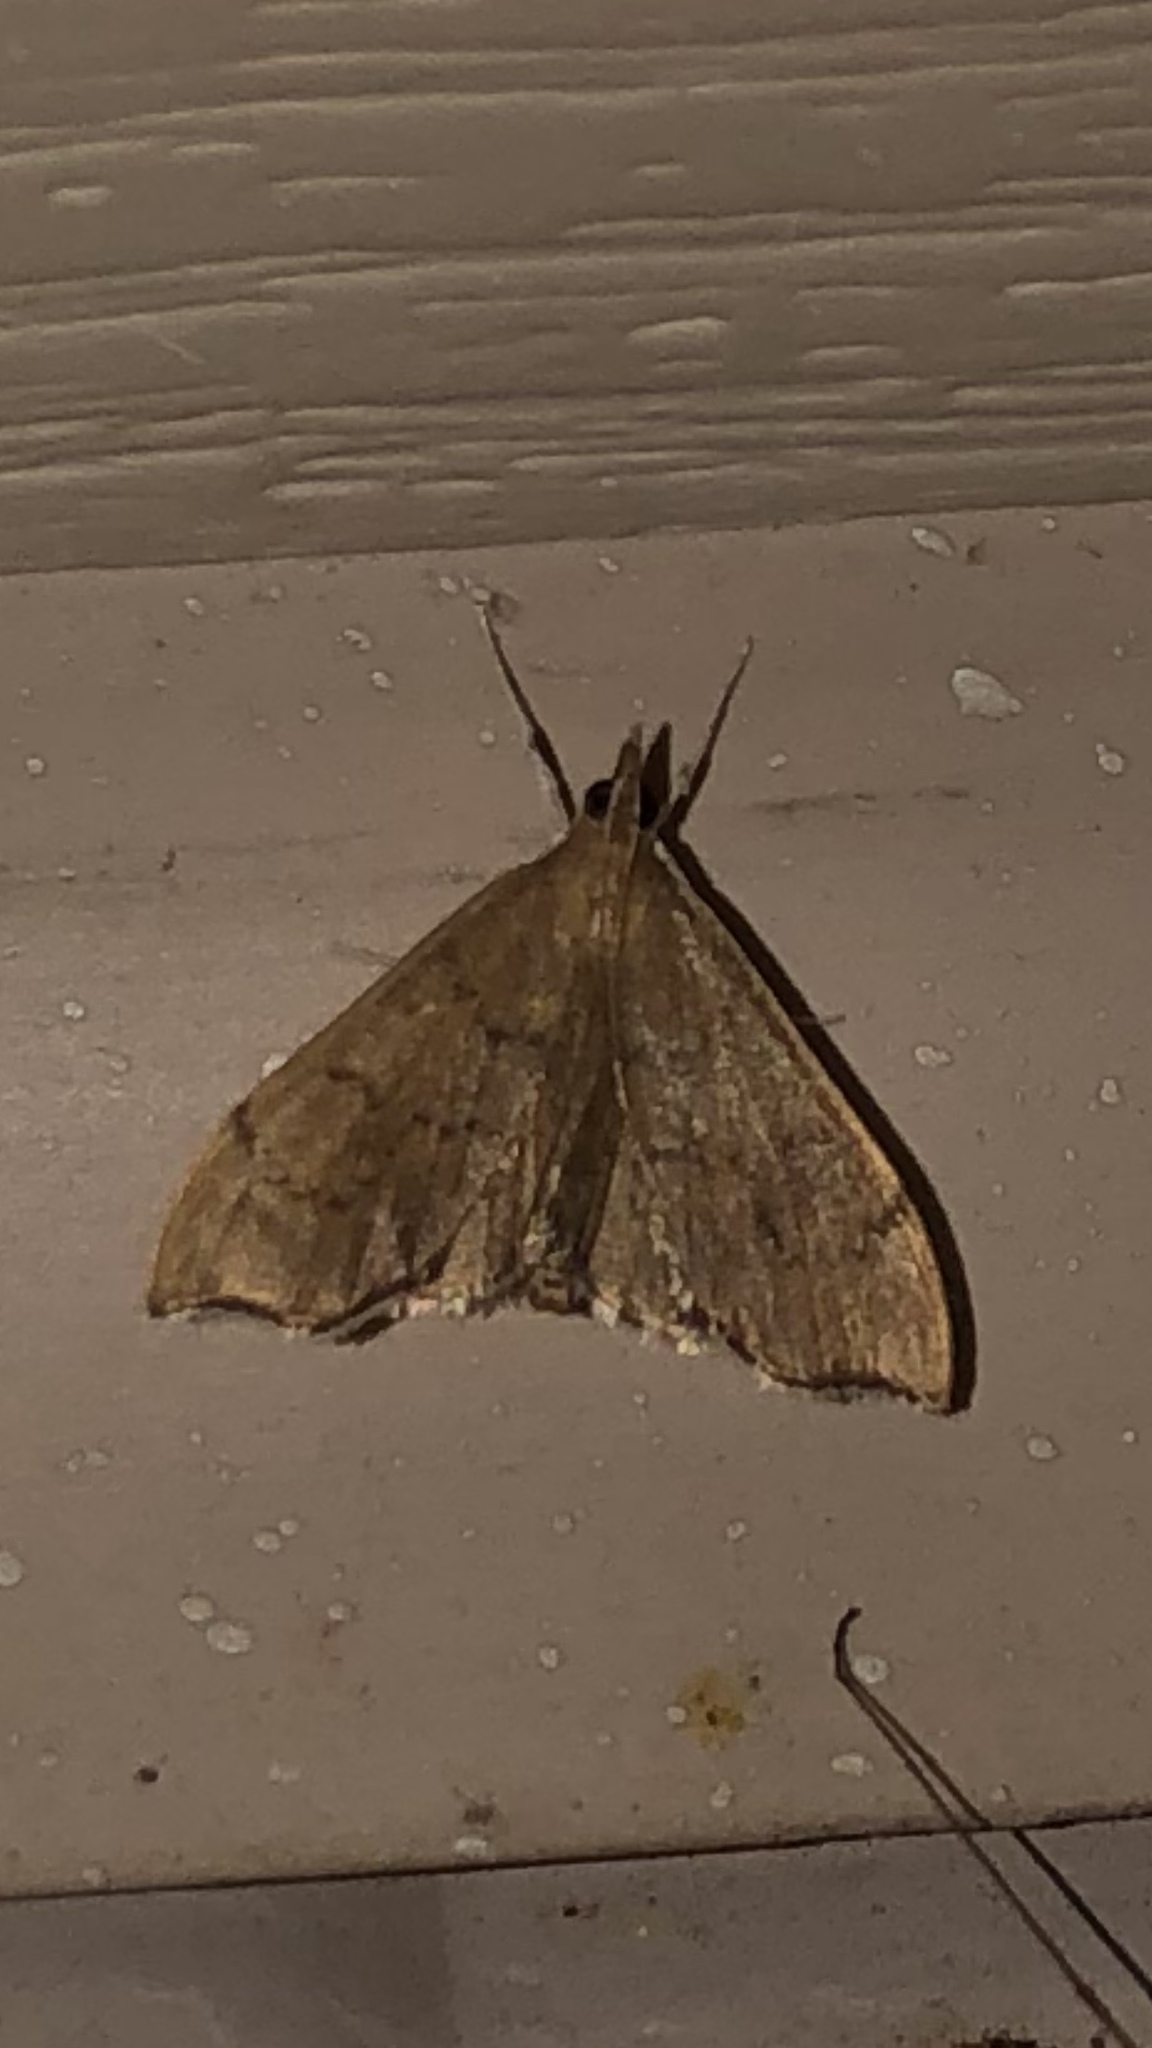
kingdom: Animalia
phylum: Arthropoda
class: Insecta
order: Lepidoptera
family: Crambidae
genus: Sericoplaga
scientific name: Sericoplaga externalis
